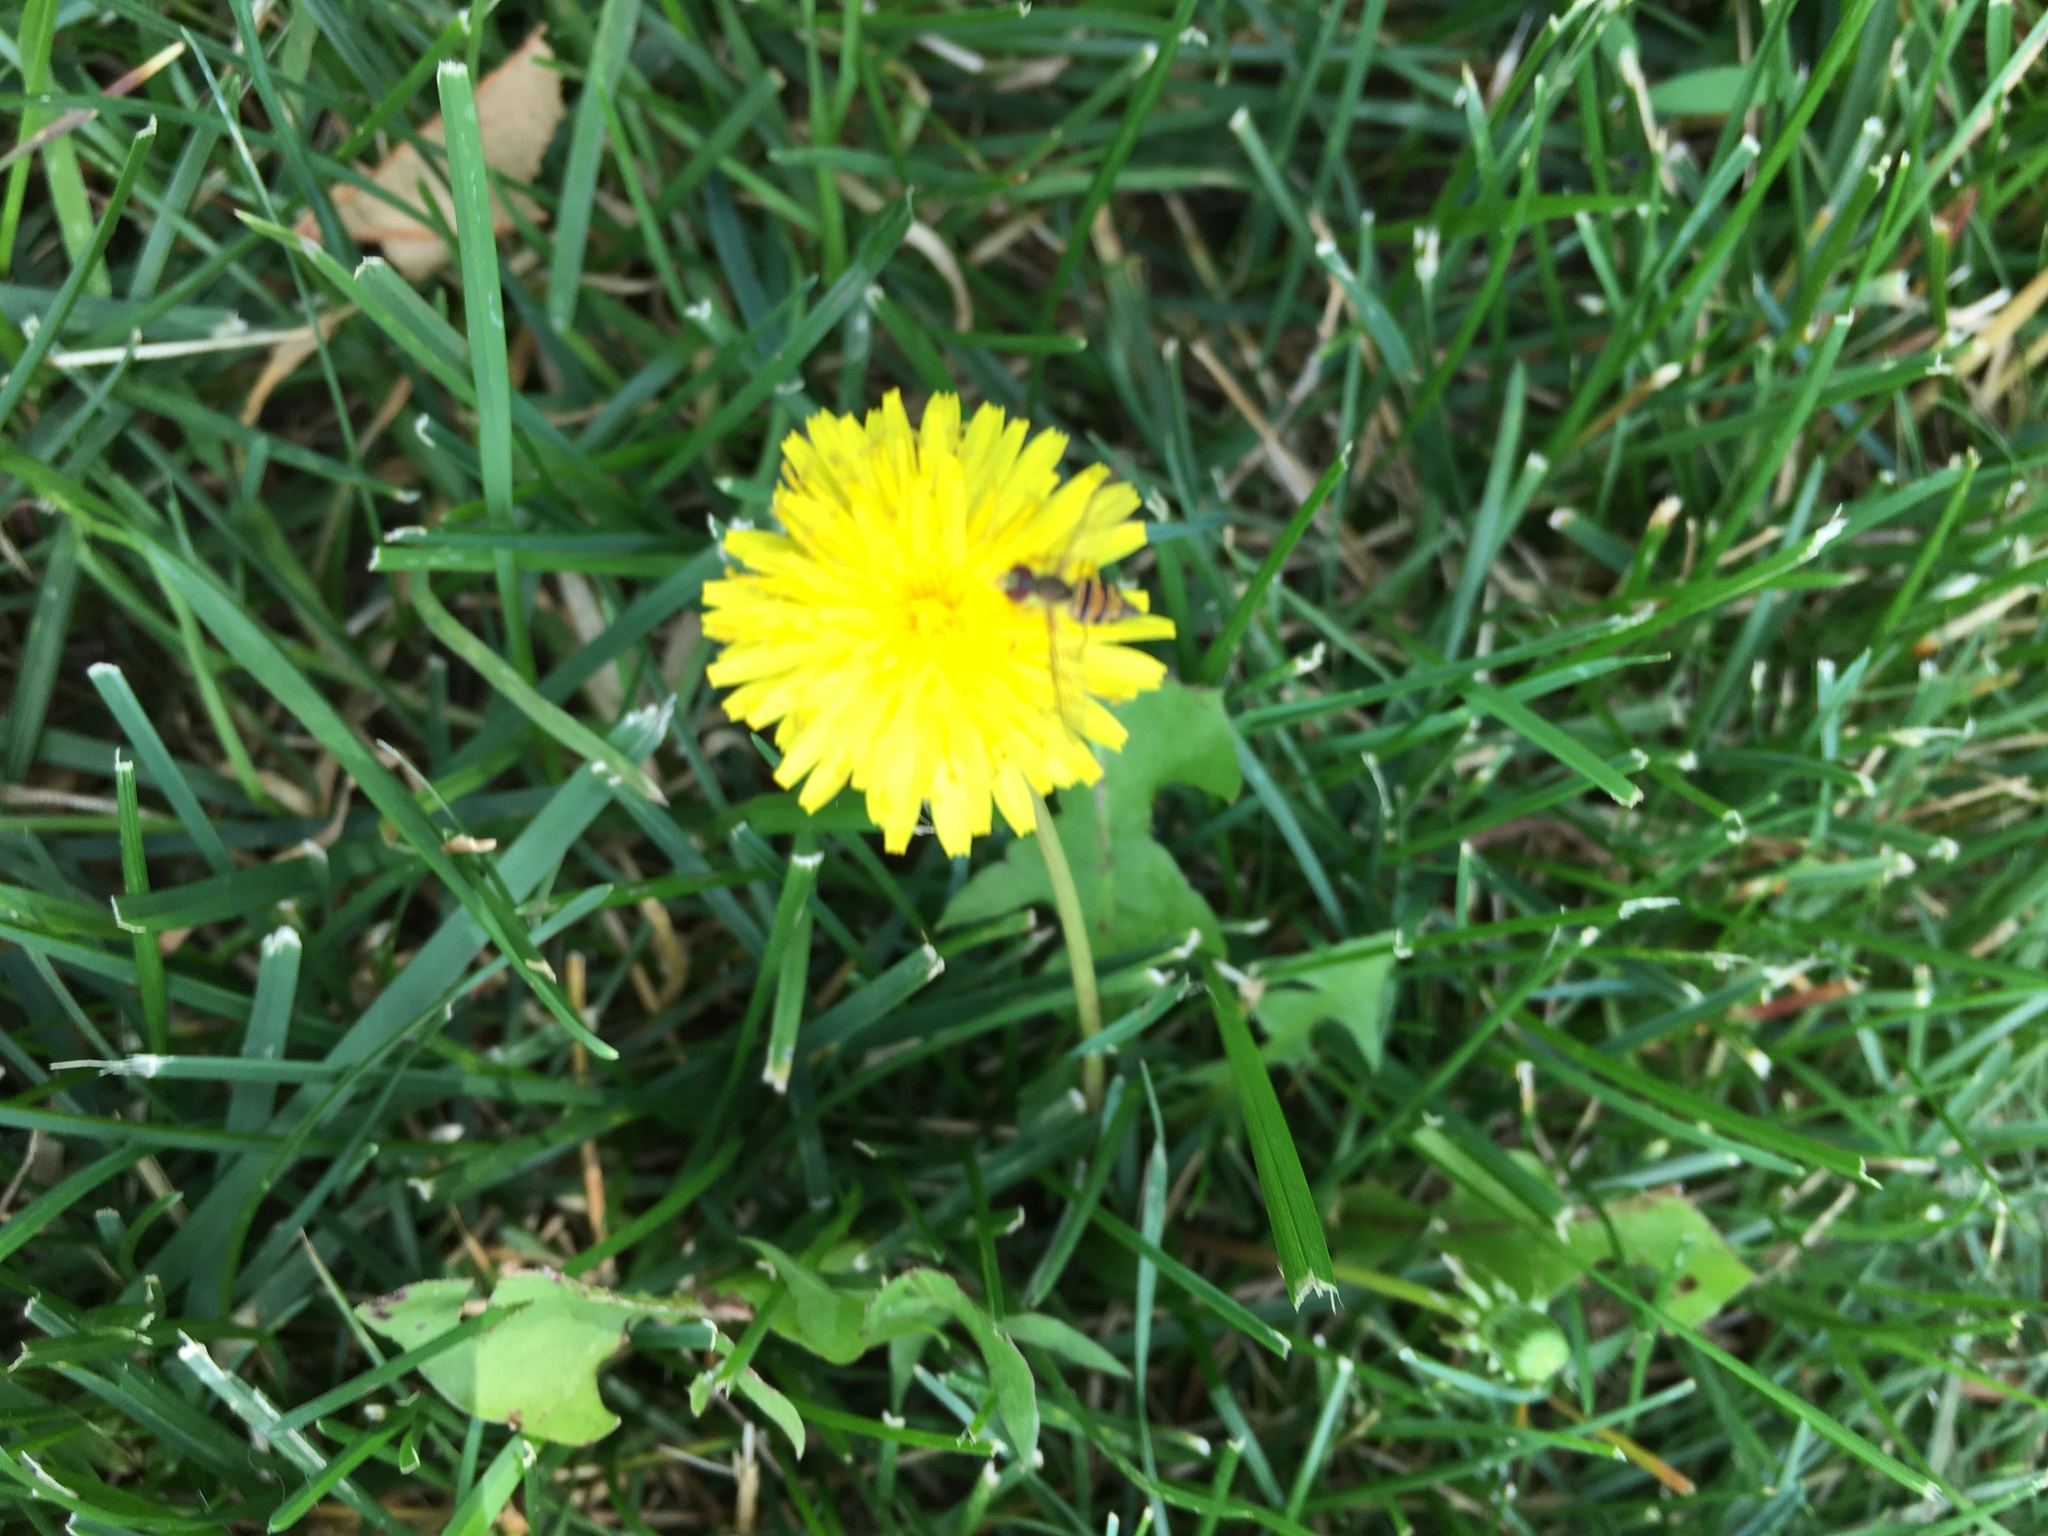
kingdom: Animalia
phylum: Arthropoda
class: Insecta
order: Diptera
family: Syrphidae
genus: Toxomerus
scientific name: Toxomerus geminatus
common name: Eastern calligrapher
